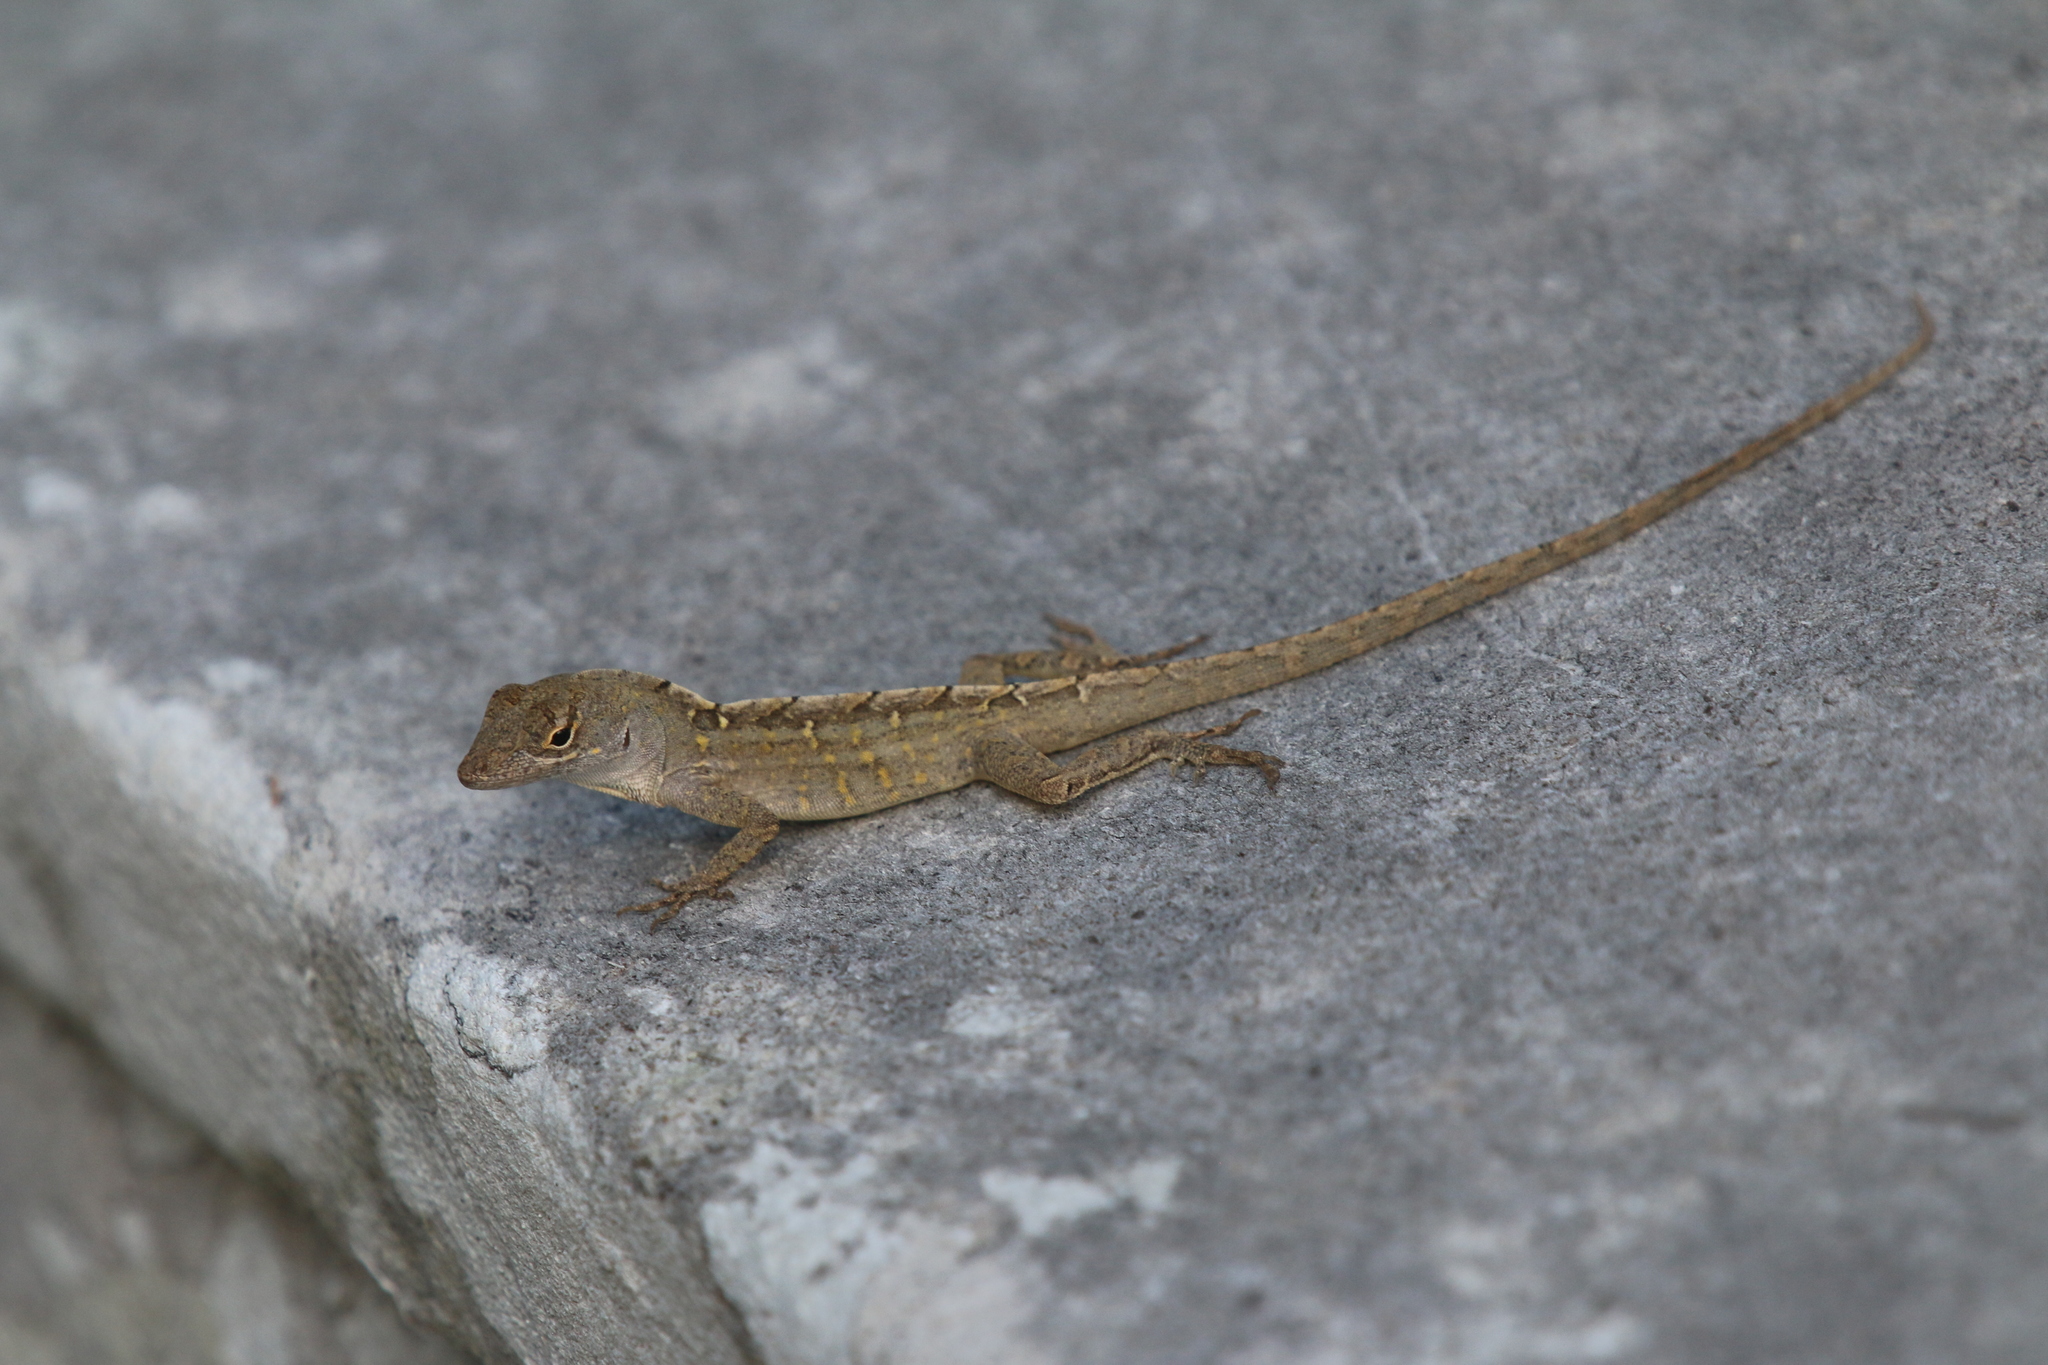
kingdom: Animalia
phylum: Chordata
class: Squamata
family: Dactyloidae
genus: Anolis
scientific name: Anolis sagrei
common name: Brown anole
